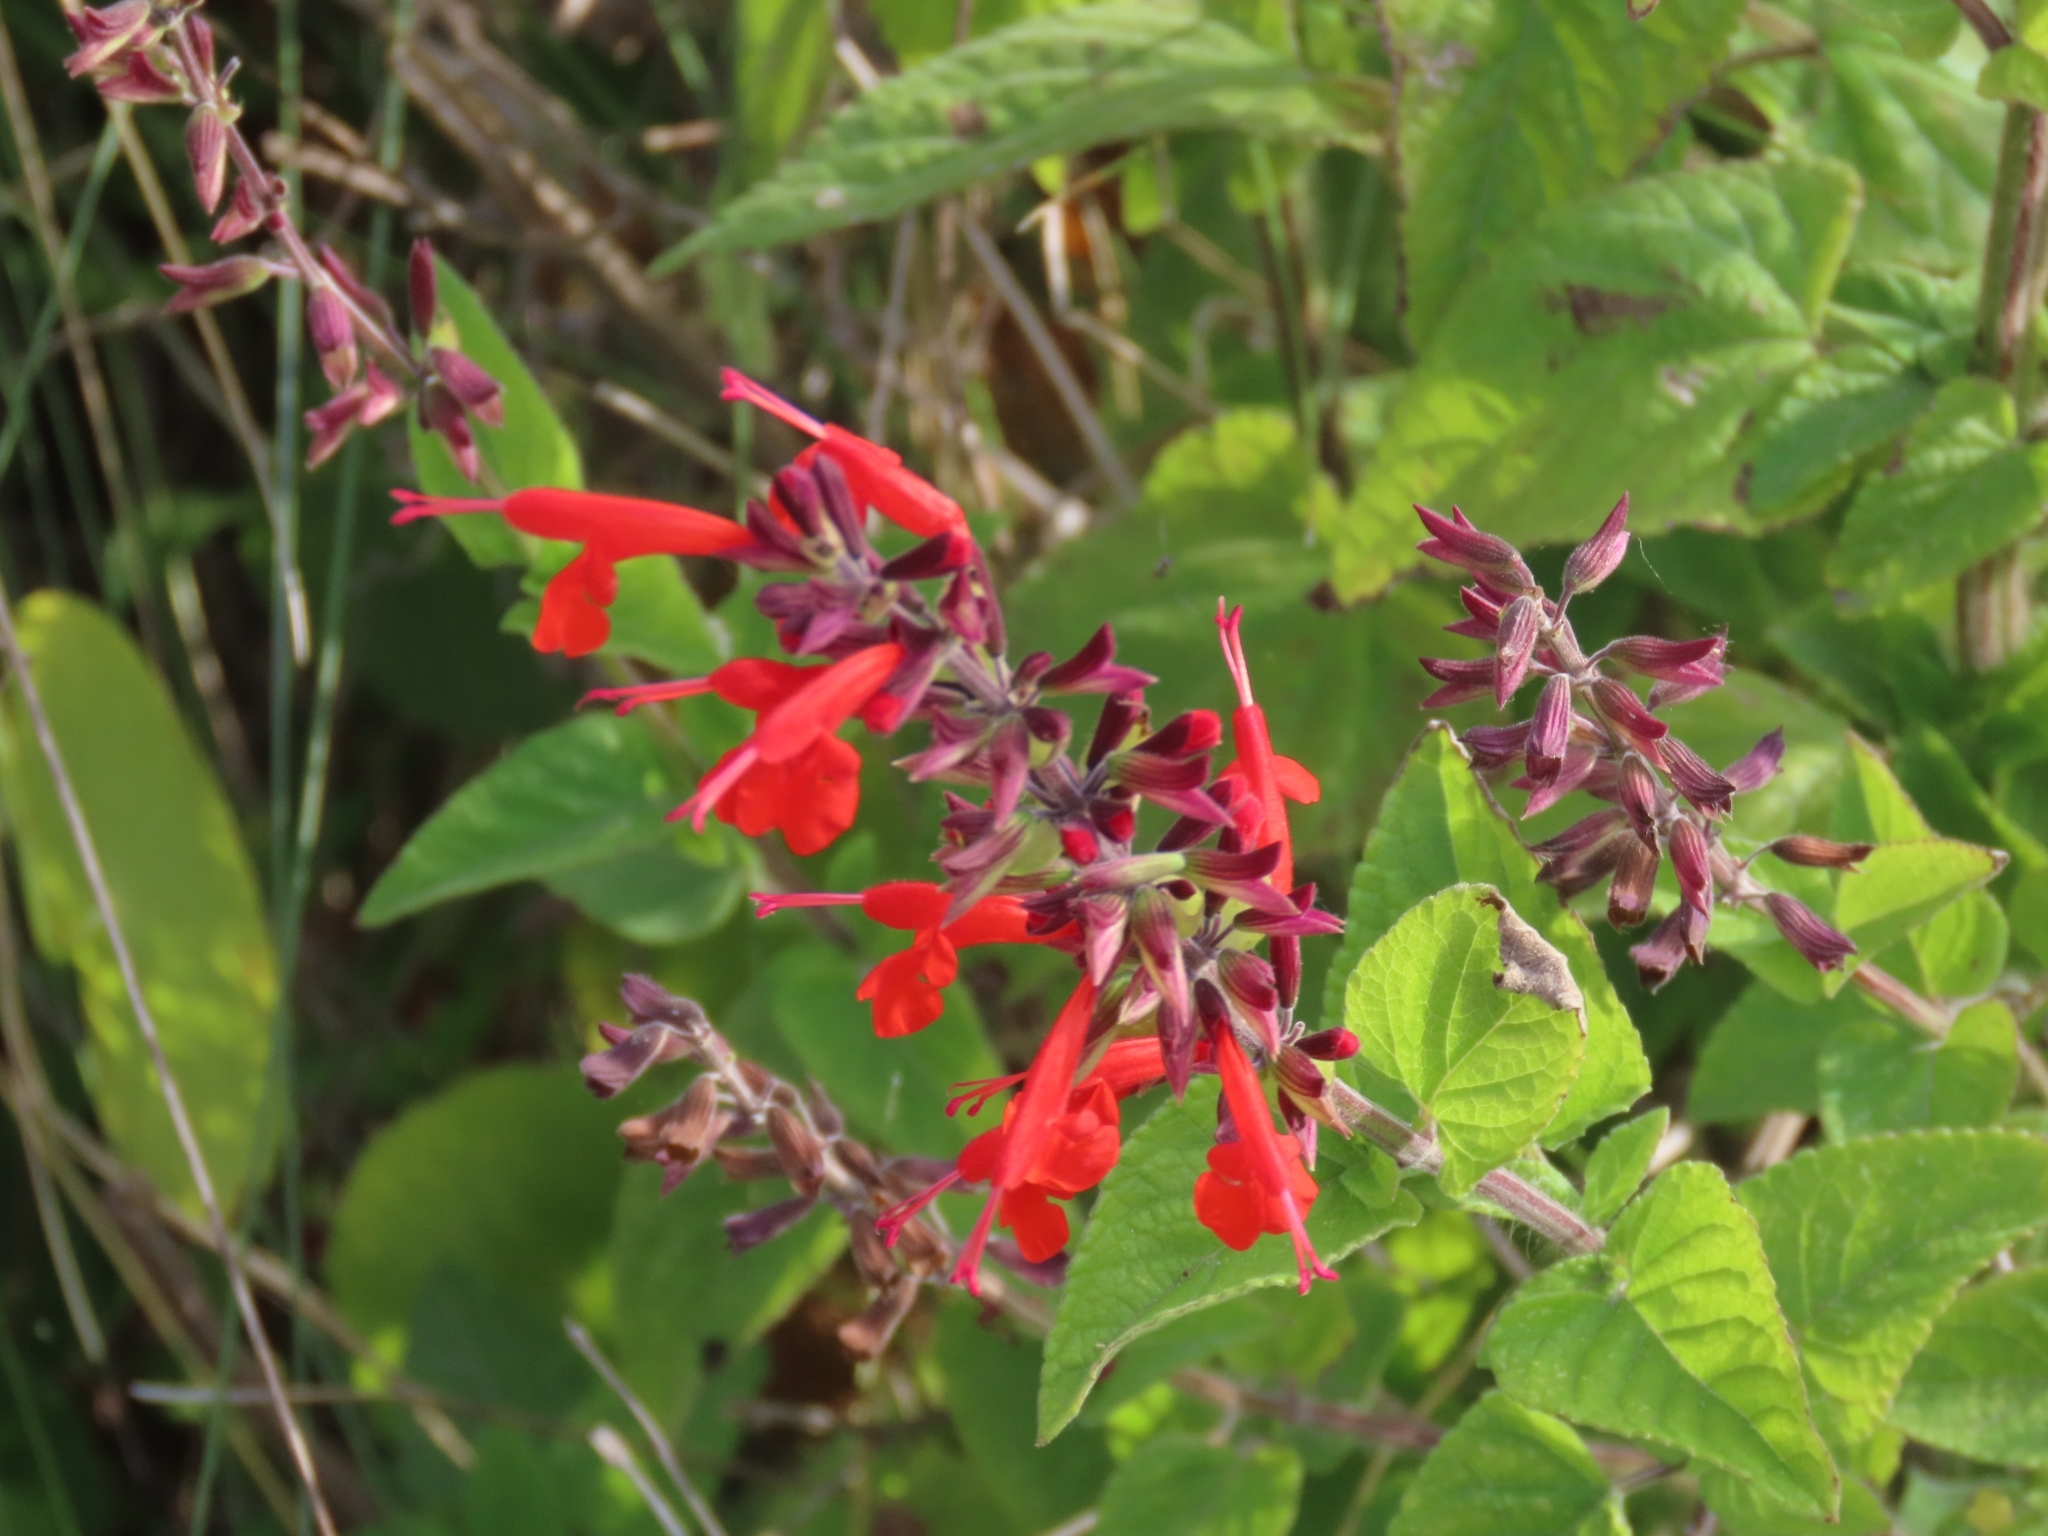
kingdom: Plantae
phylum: Tracheophyta
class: Magnoliopsida
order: Lamiales
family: Lamiaceae
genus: Salvia
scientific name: Salvia coccinea
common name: Blood sage
